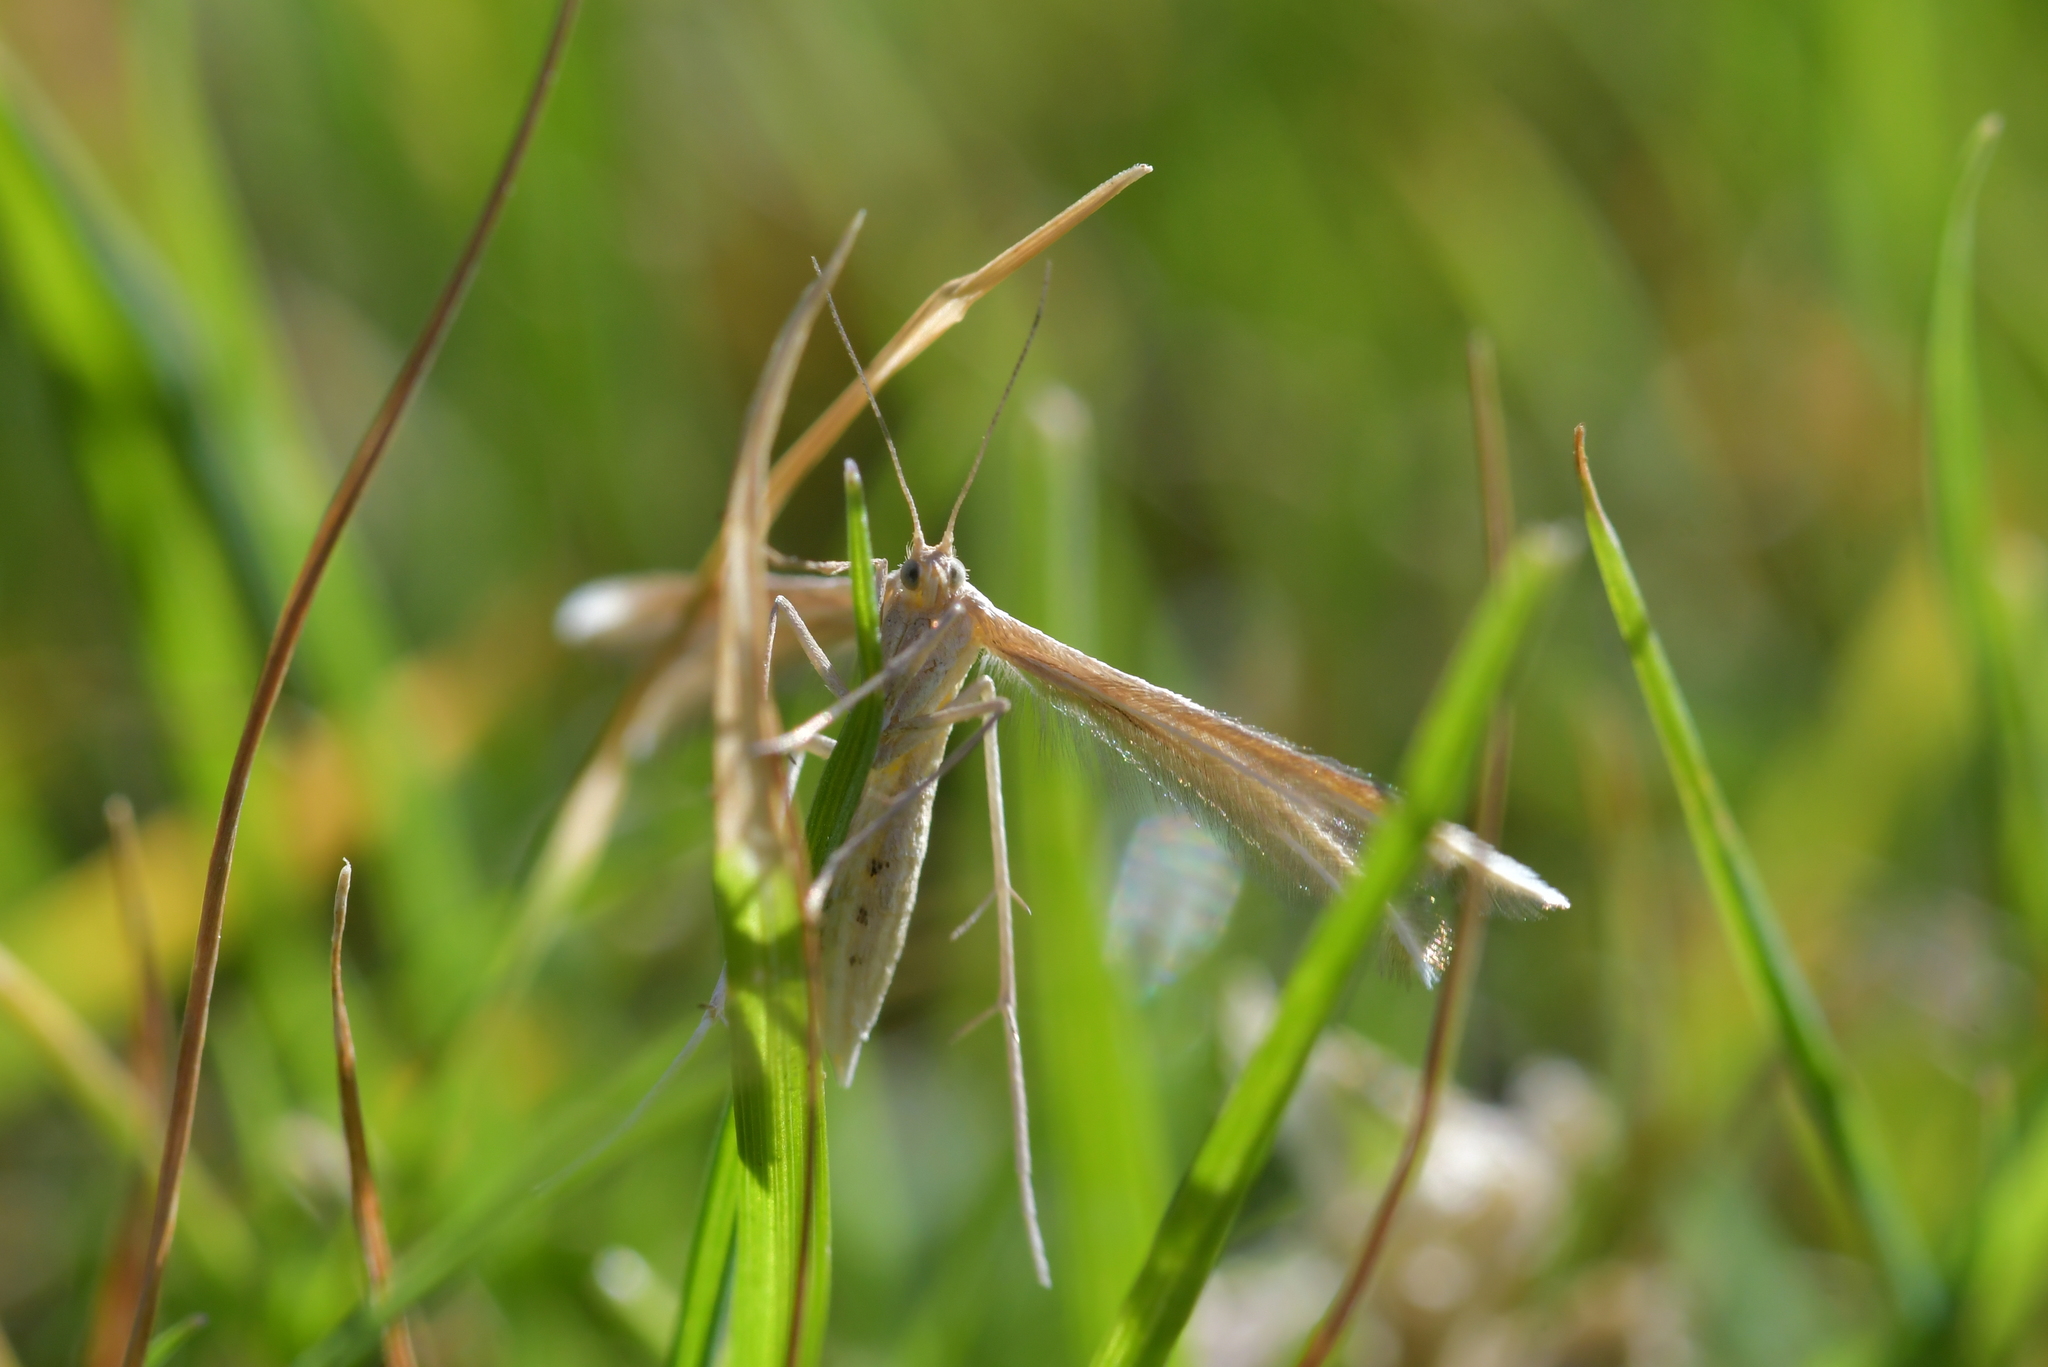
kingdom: Animalia
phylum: Arthropoda
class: Insecta
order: Lepidoptera
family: Pterophoridae
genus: Pterophorus
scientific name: Pterophorus innotatalis
